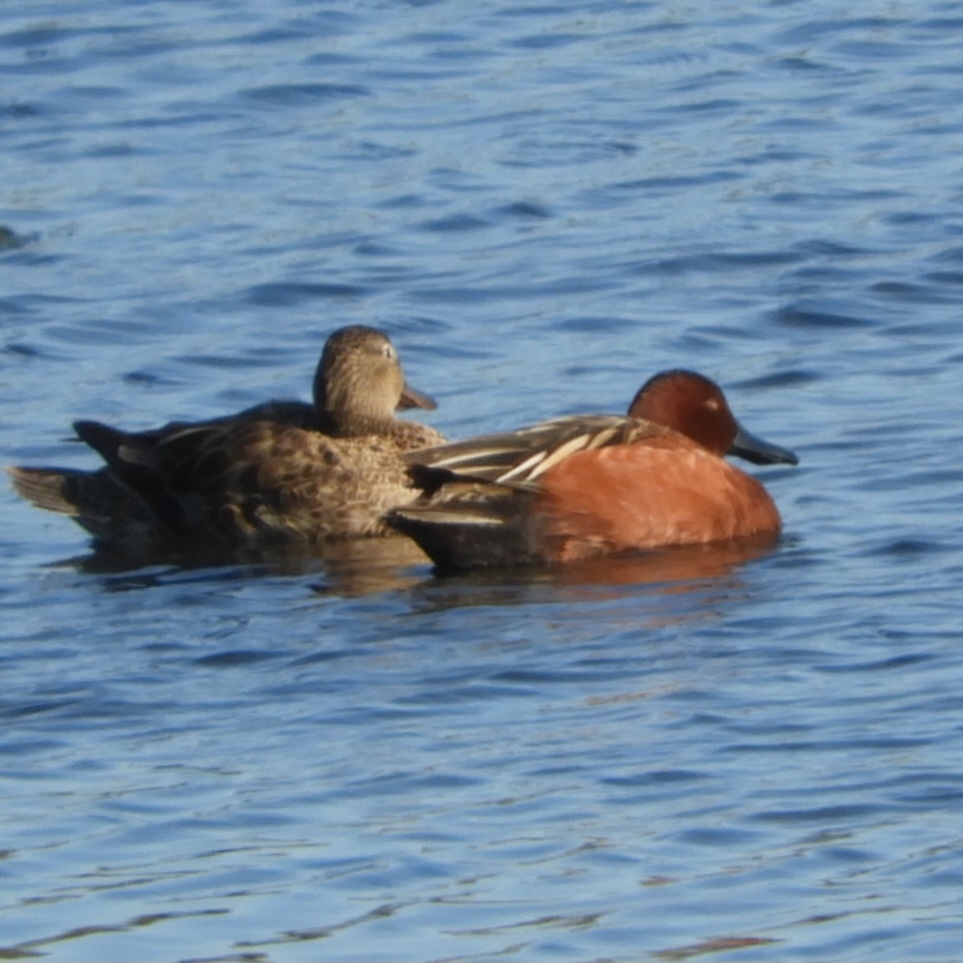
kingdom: Animalia
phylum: Chordata
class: Aves
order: Anseriformes
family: Anatidae
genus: Spatula
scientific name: Spatula cyanoptera
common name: Cinnamon teal
